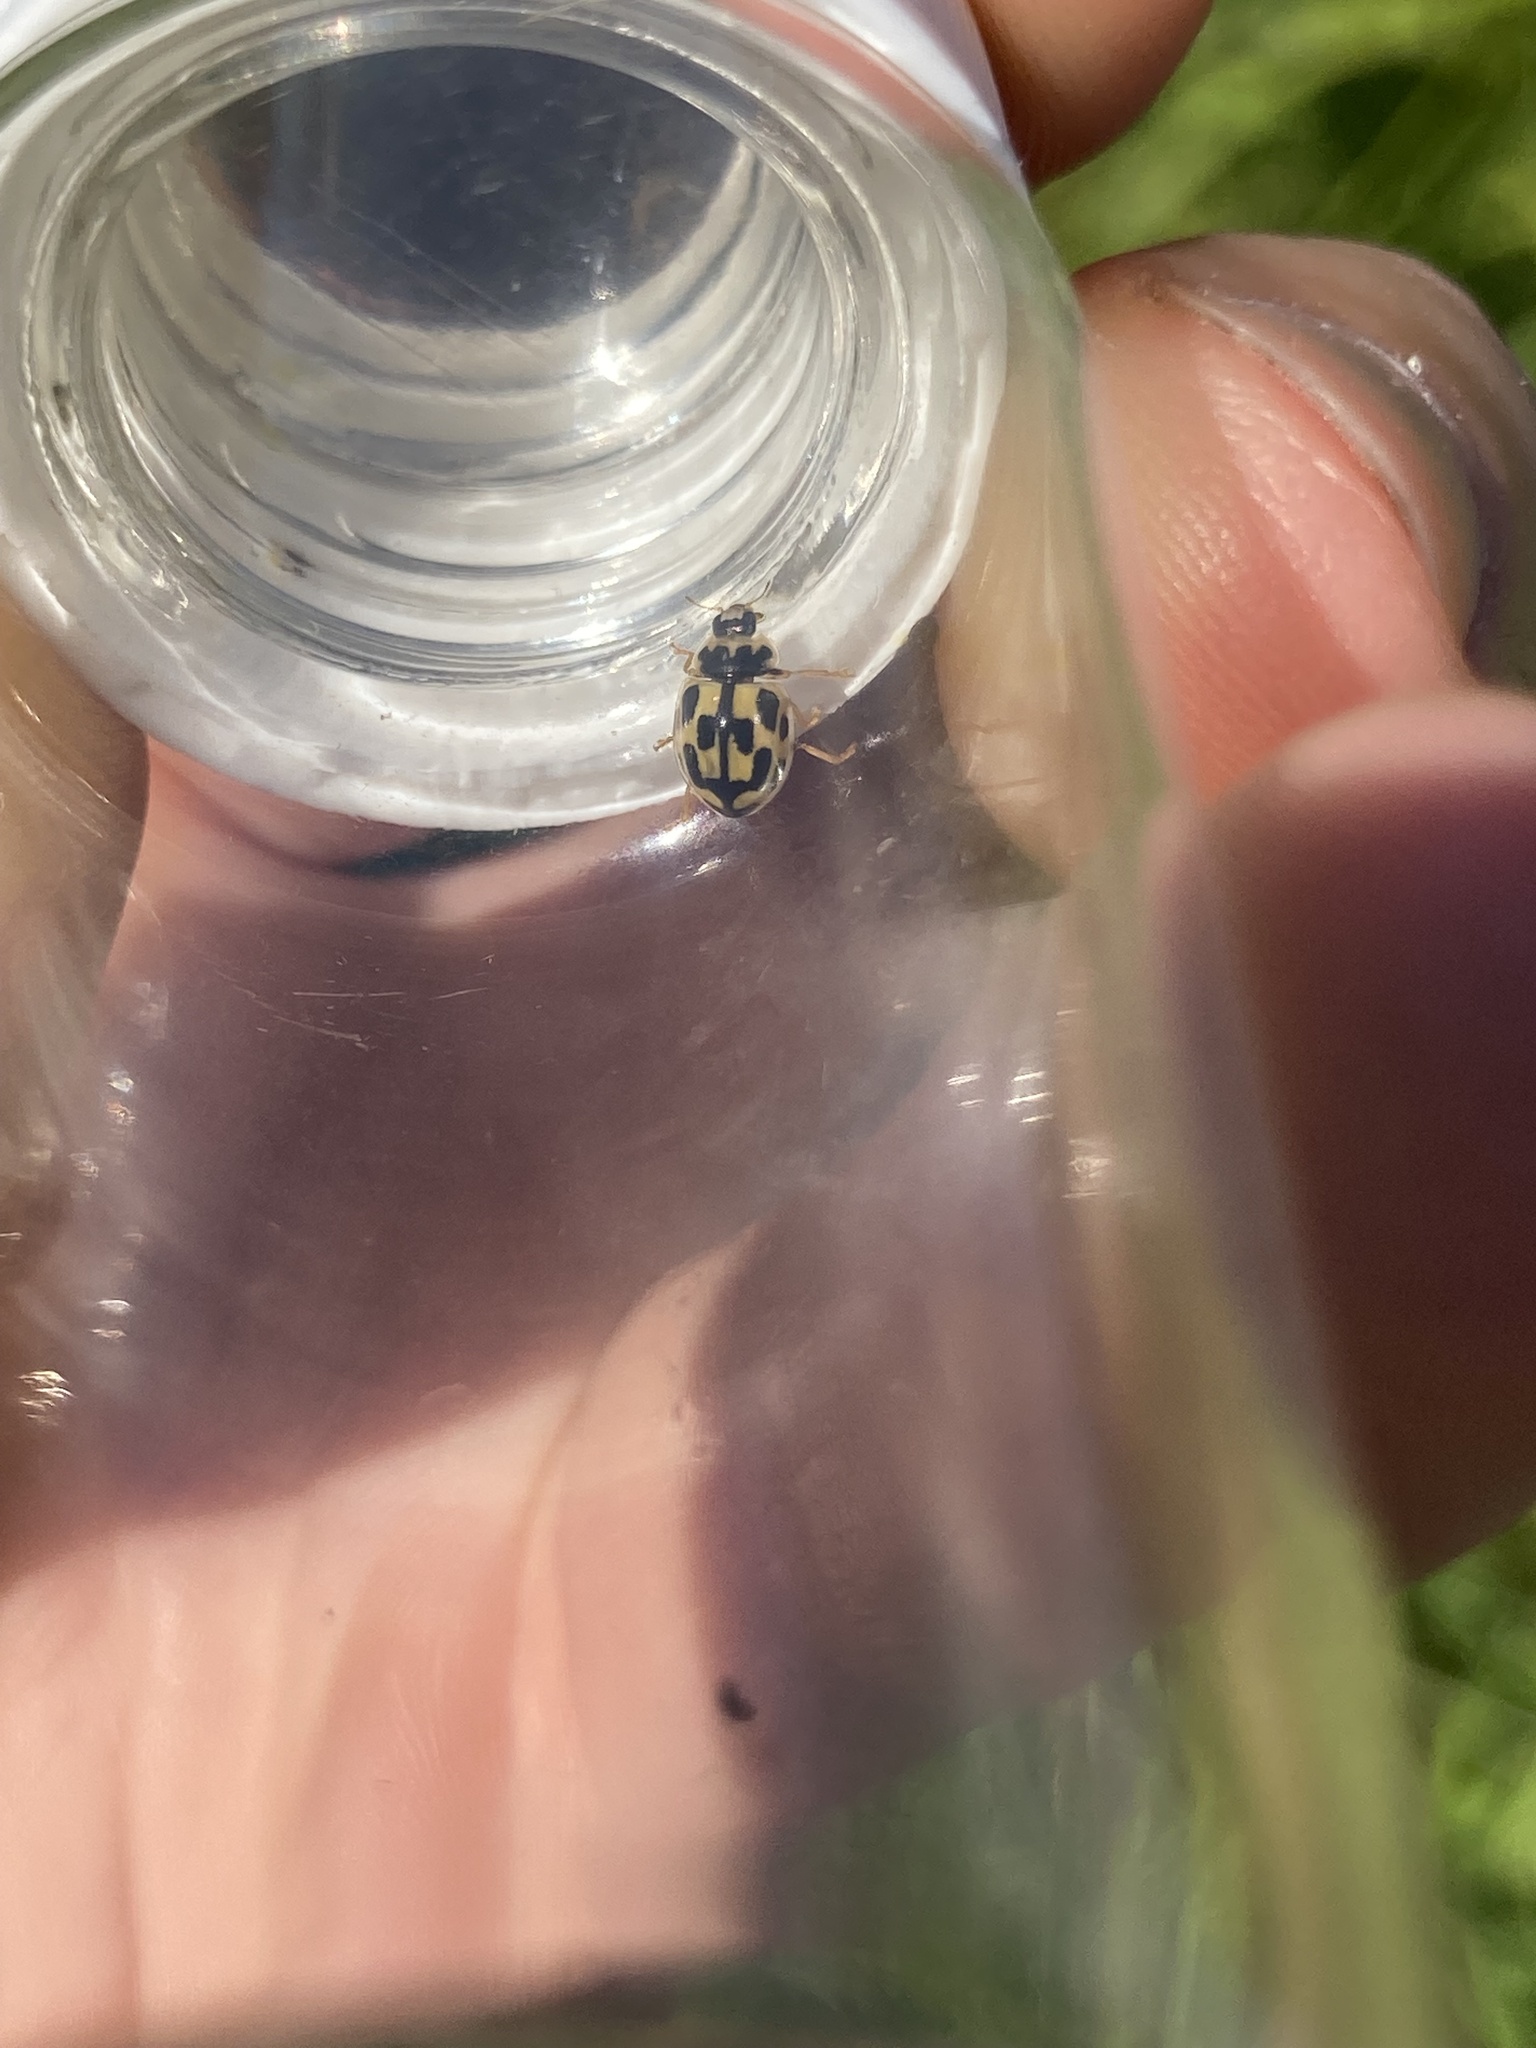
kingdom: Animalia
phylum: Arthropoda
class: Insecta
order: Coleoptera
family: Coccinellidae
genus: Propylaea
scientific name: Propylaea quatuordecimpunctata
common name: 14-spotted ladybird beetle
